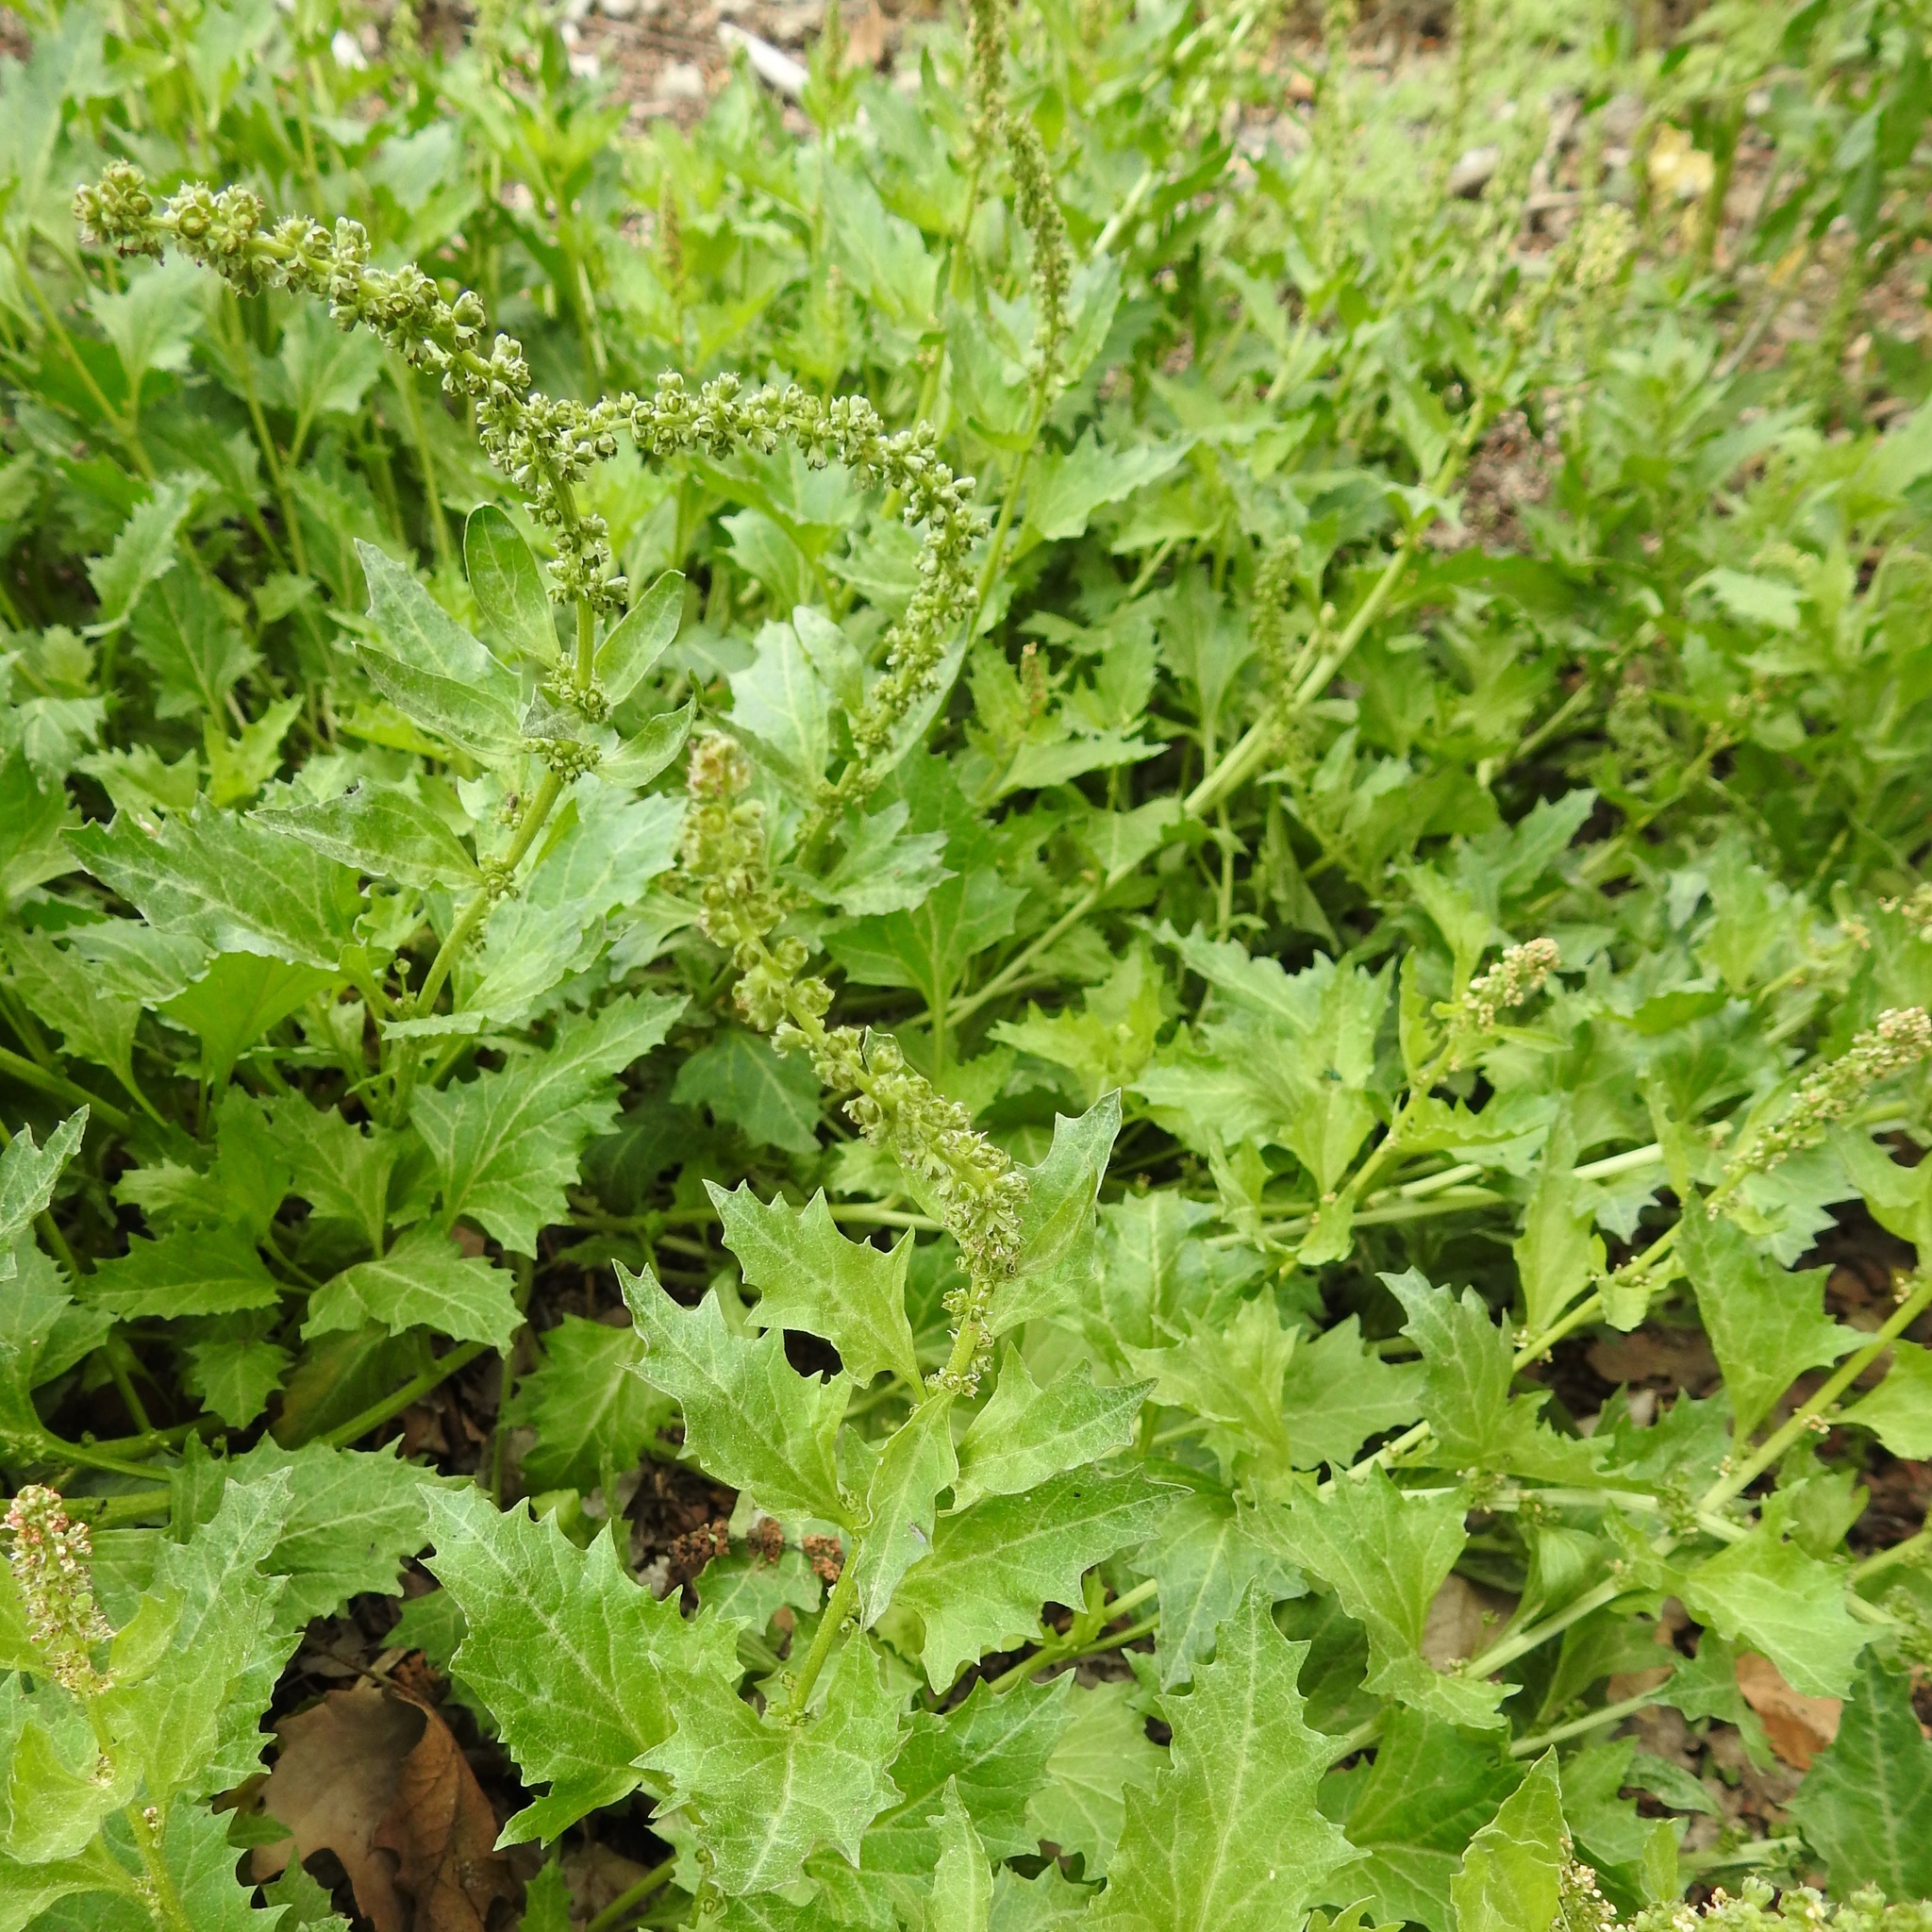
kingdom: Plantae
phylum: Tracheophyta
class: Magnoliopsida
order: Caryophyllales
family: Amaranthaceae
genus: Blitum
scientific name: Blitum californicum
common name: California goosefoot
